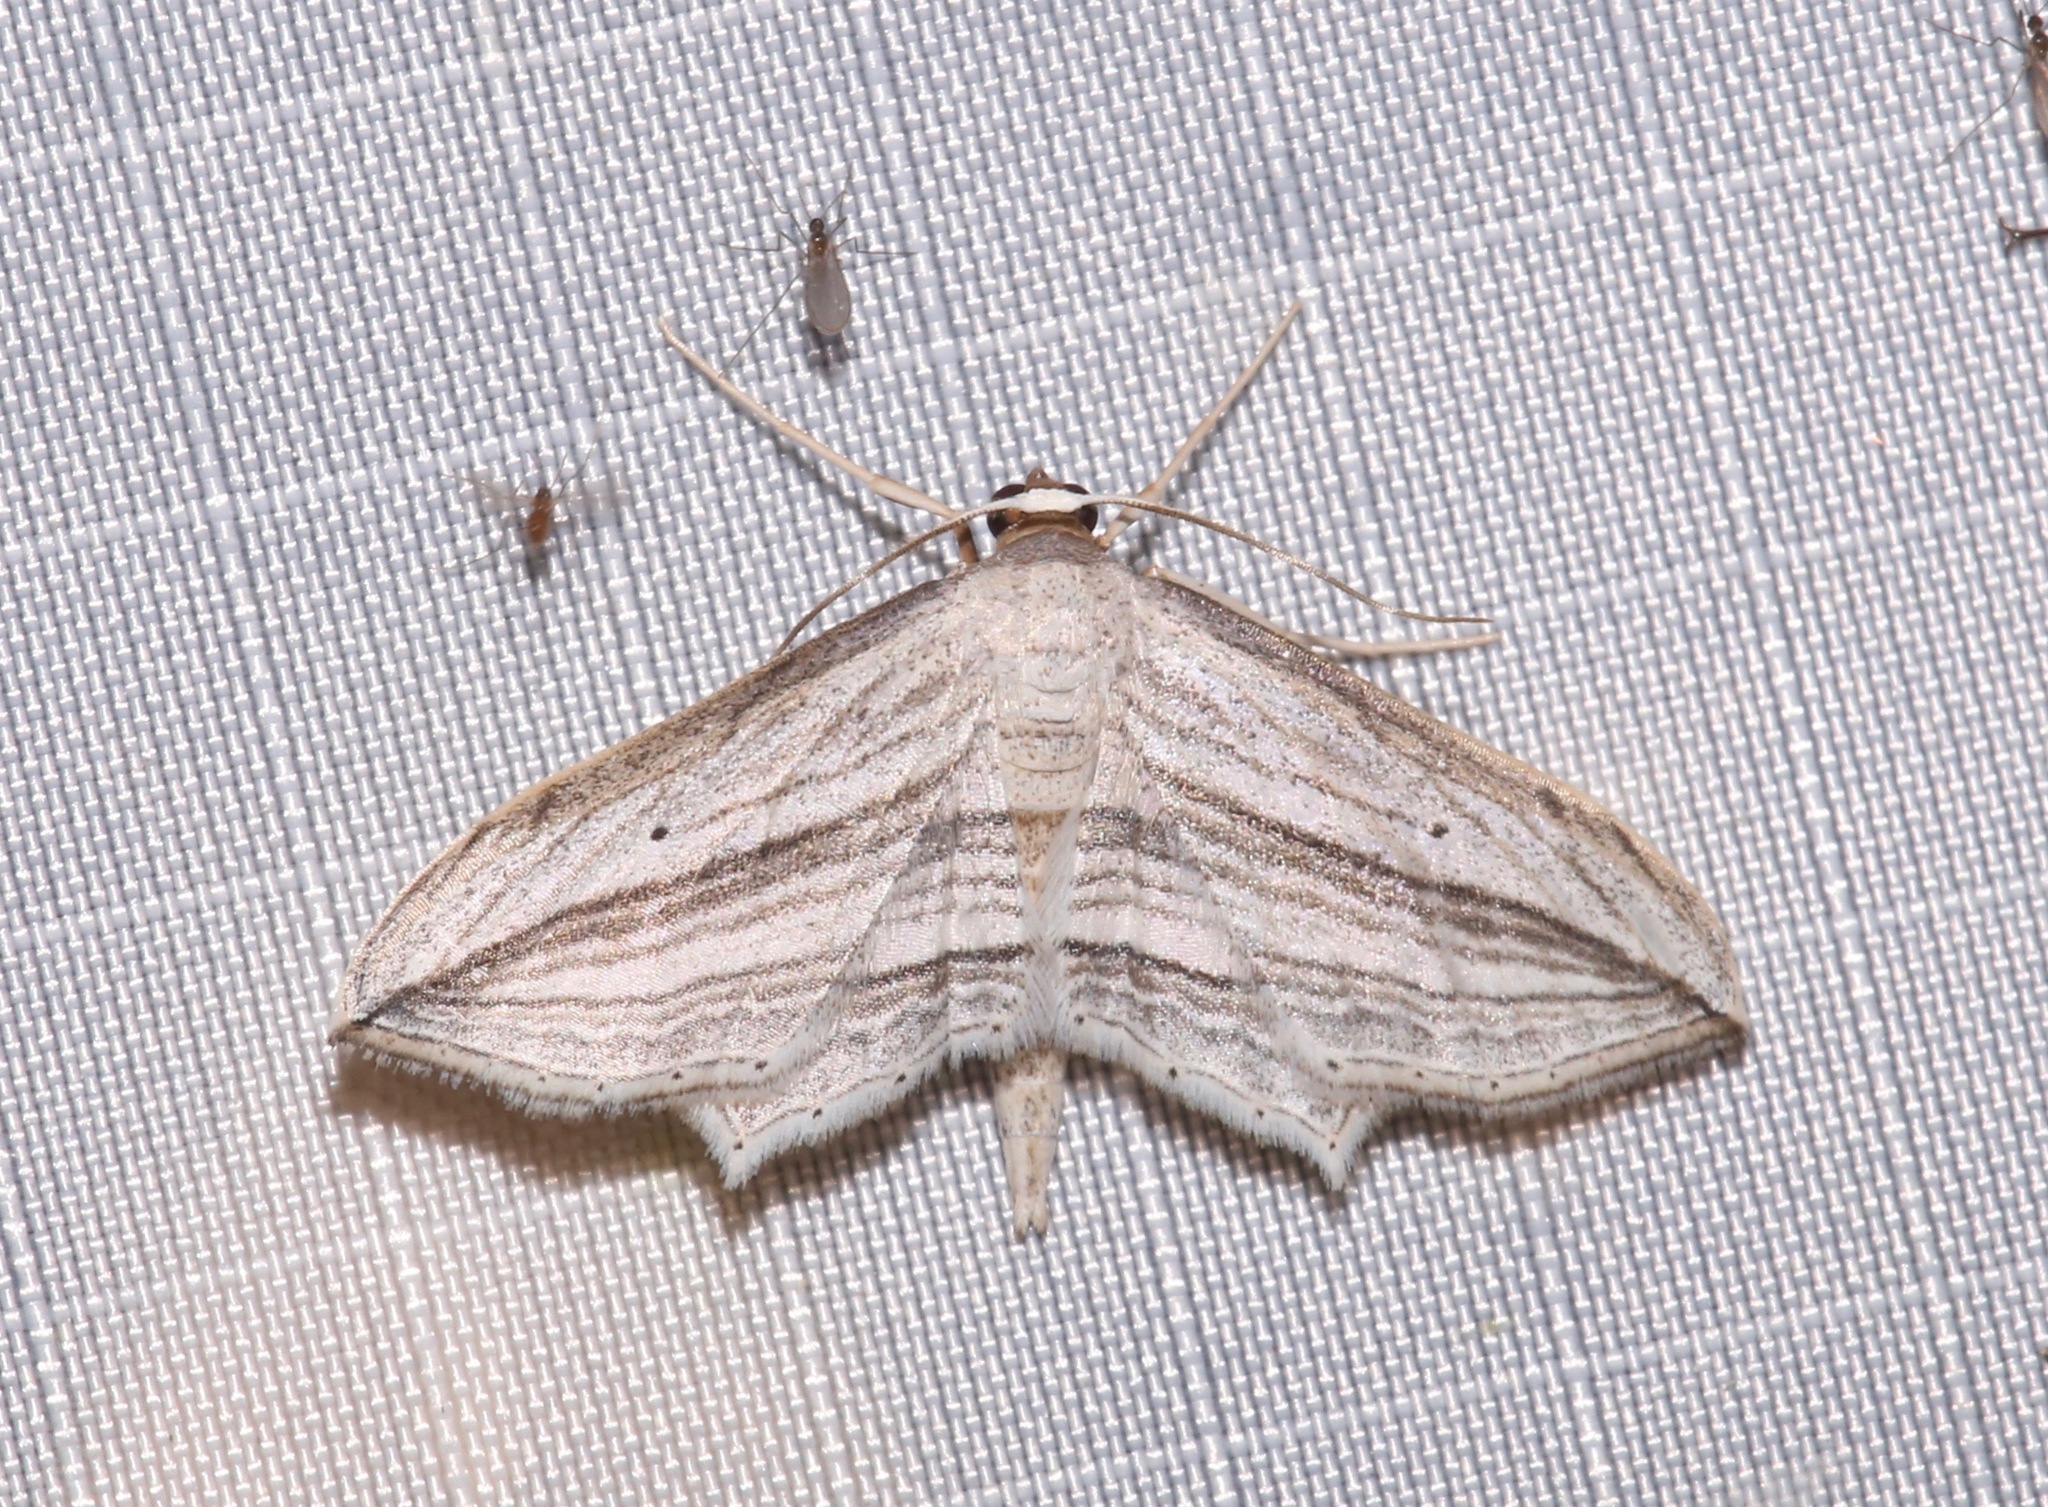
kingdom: Animalia
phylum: Arthropoda
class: Insecta
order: Lepidoptera
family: Geometridae
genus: Arcobara
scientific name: Arcobara multilineata
